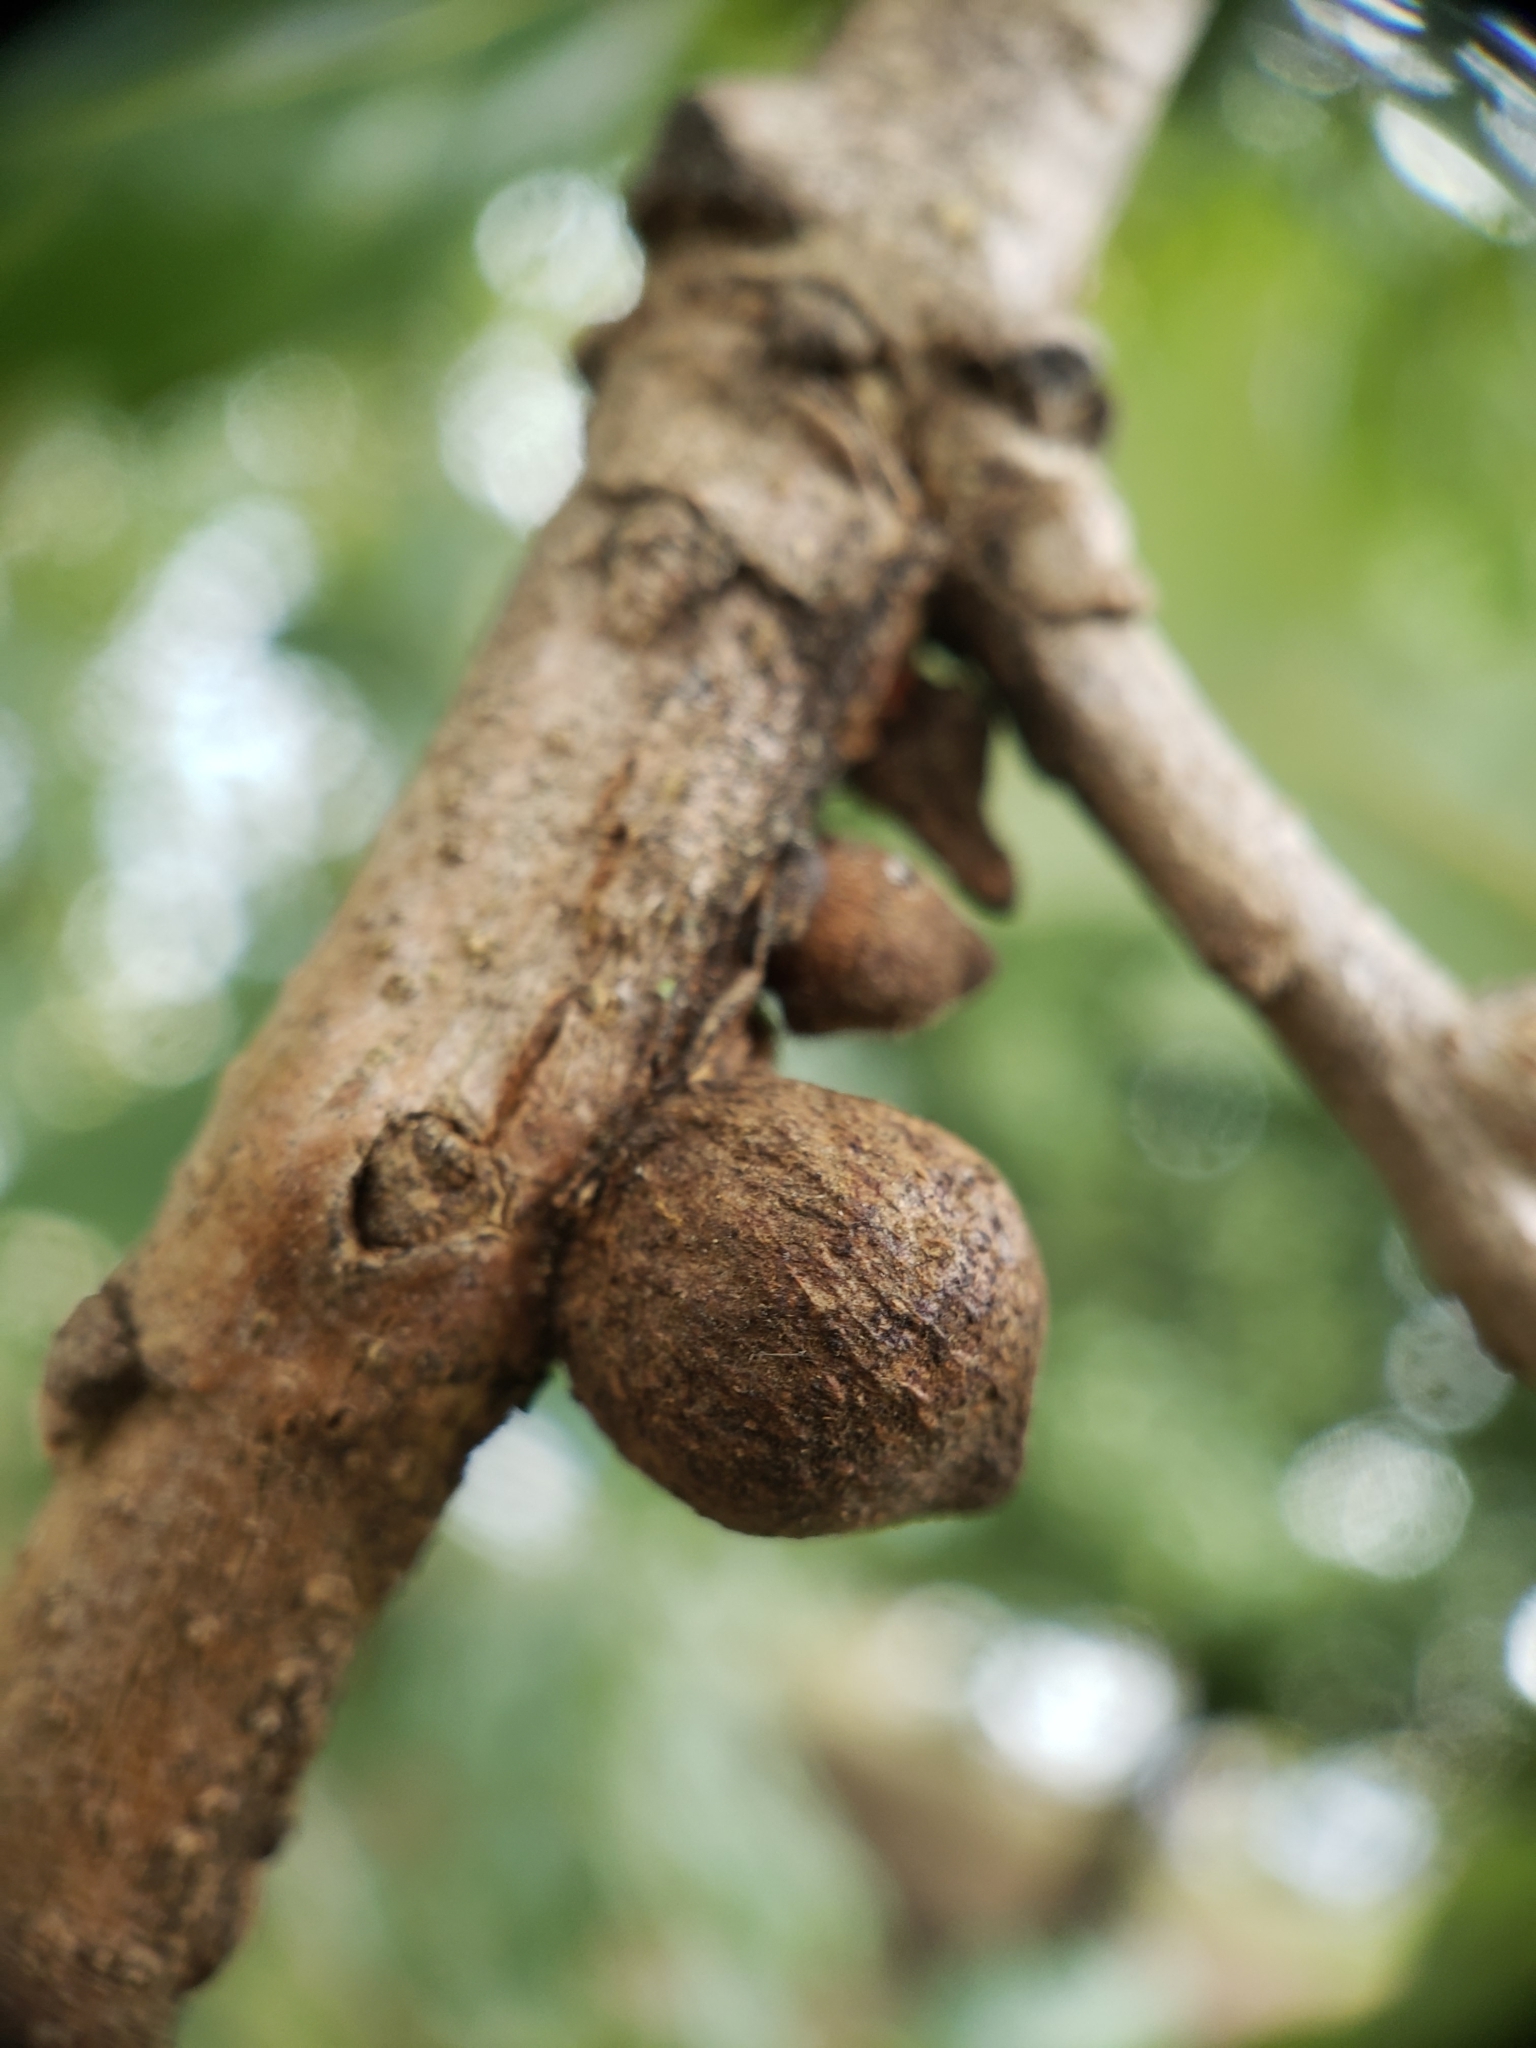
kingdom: Animalia
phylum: Arthropoda
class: Insecta
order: Hymenoptera
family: Cynipidae
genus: Disholcaspis
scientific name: Disholcaspis
